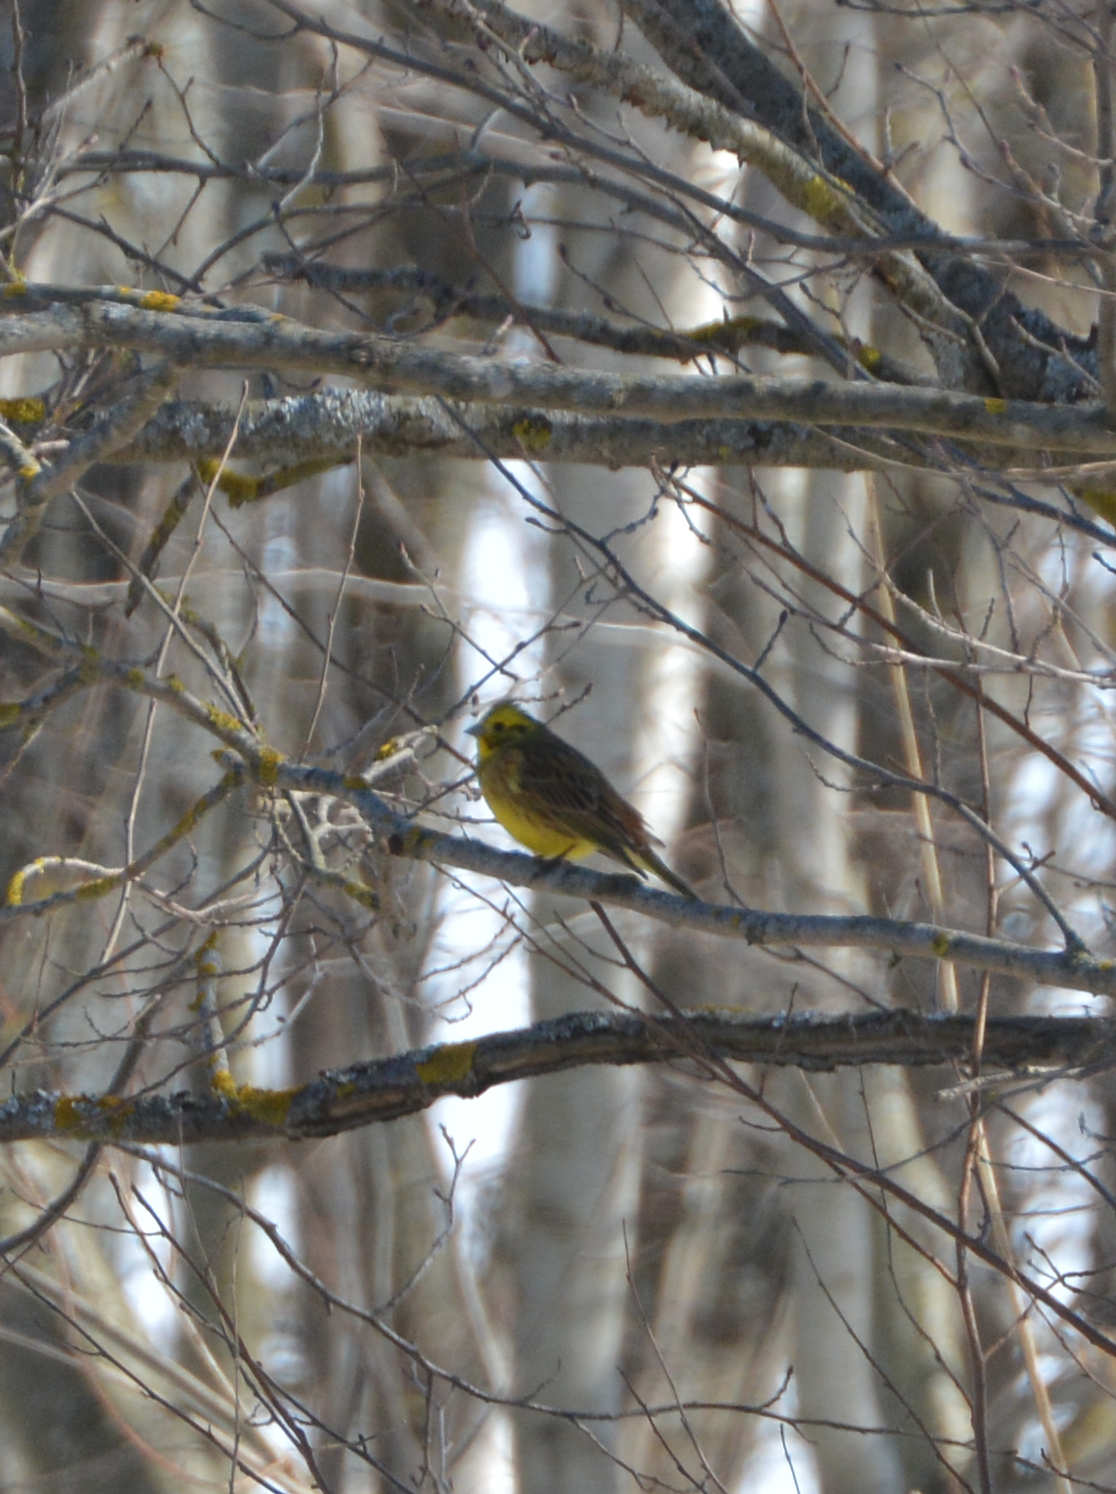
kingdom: Animalia
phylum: Chordata
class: Aves
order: Passeriformes
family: Emberizidae
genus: Emberiza
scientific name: Emberiza citrinella
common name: Yellowhammer
